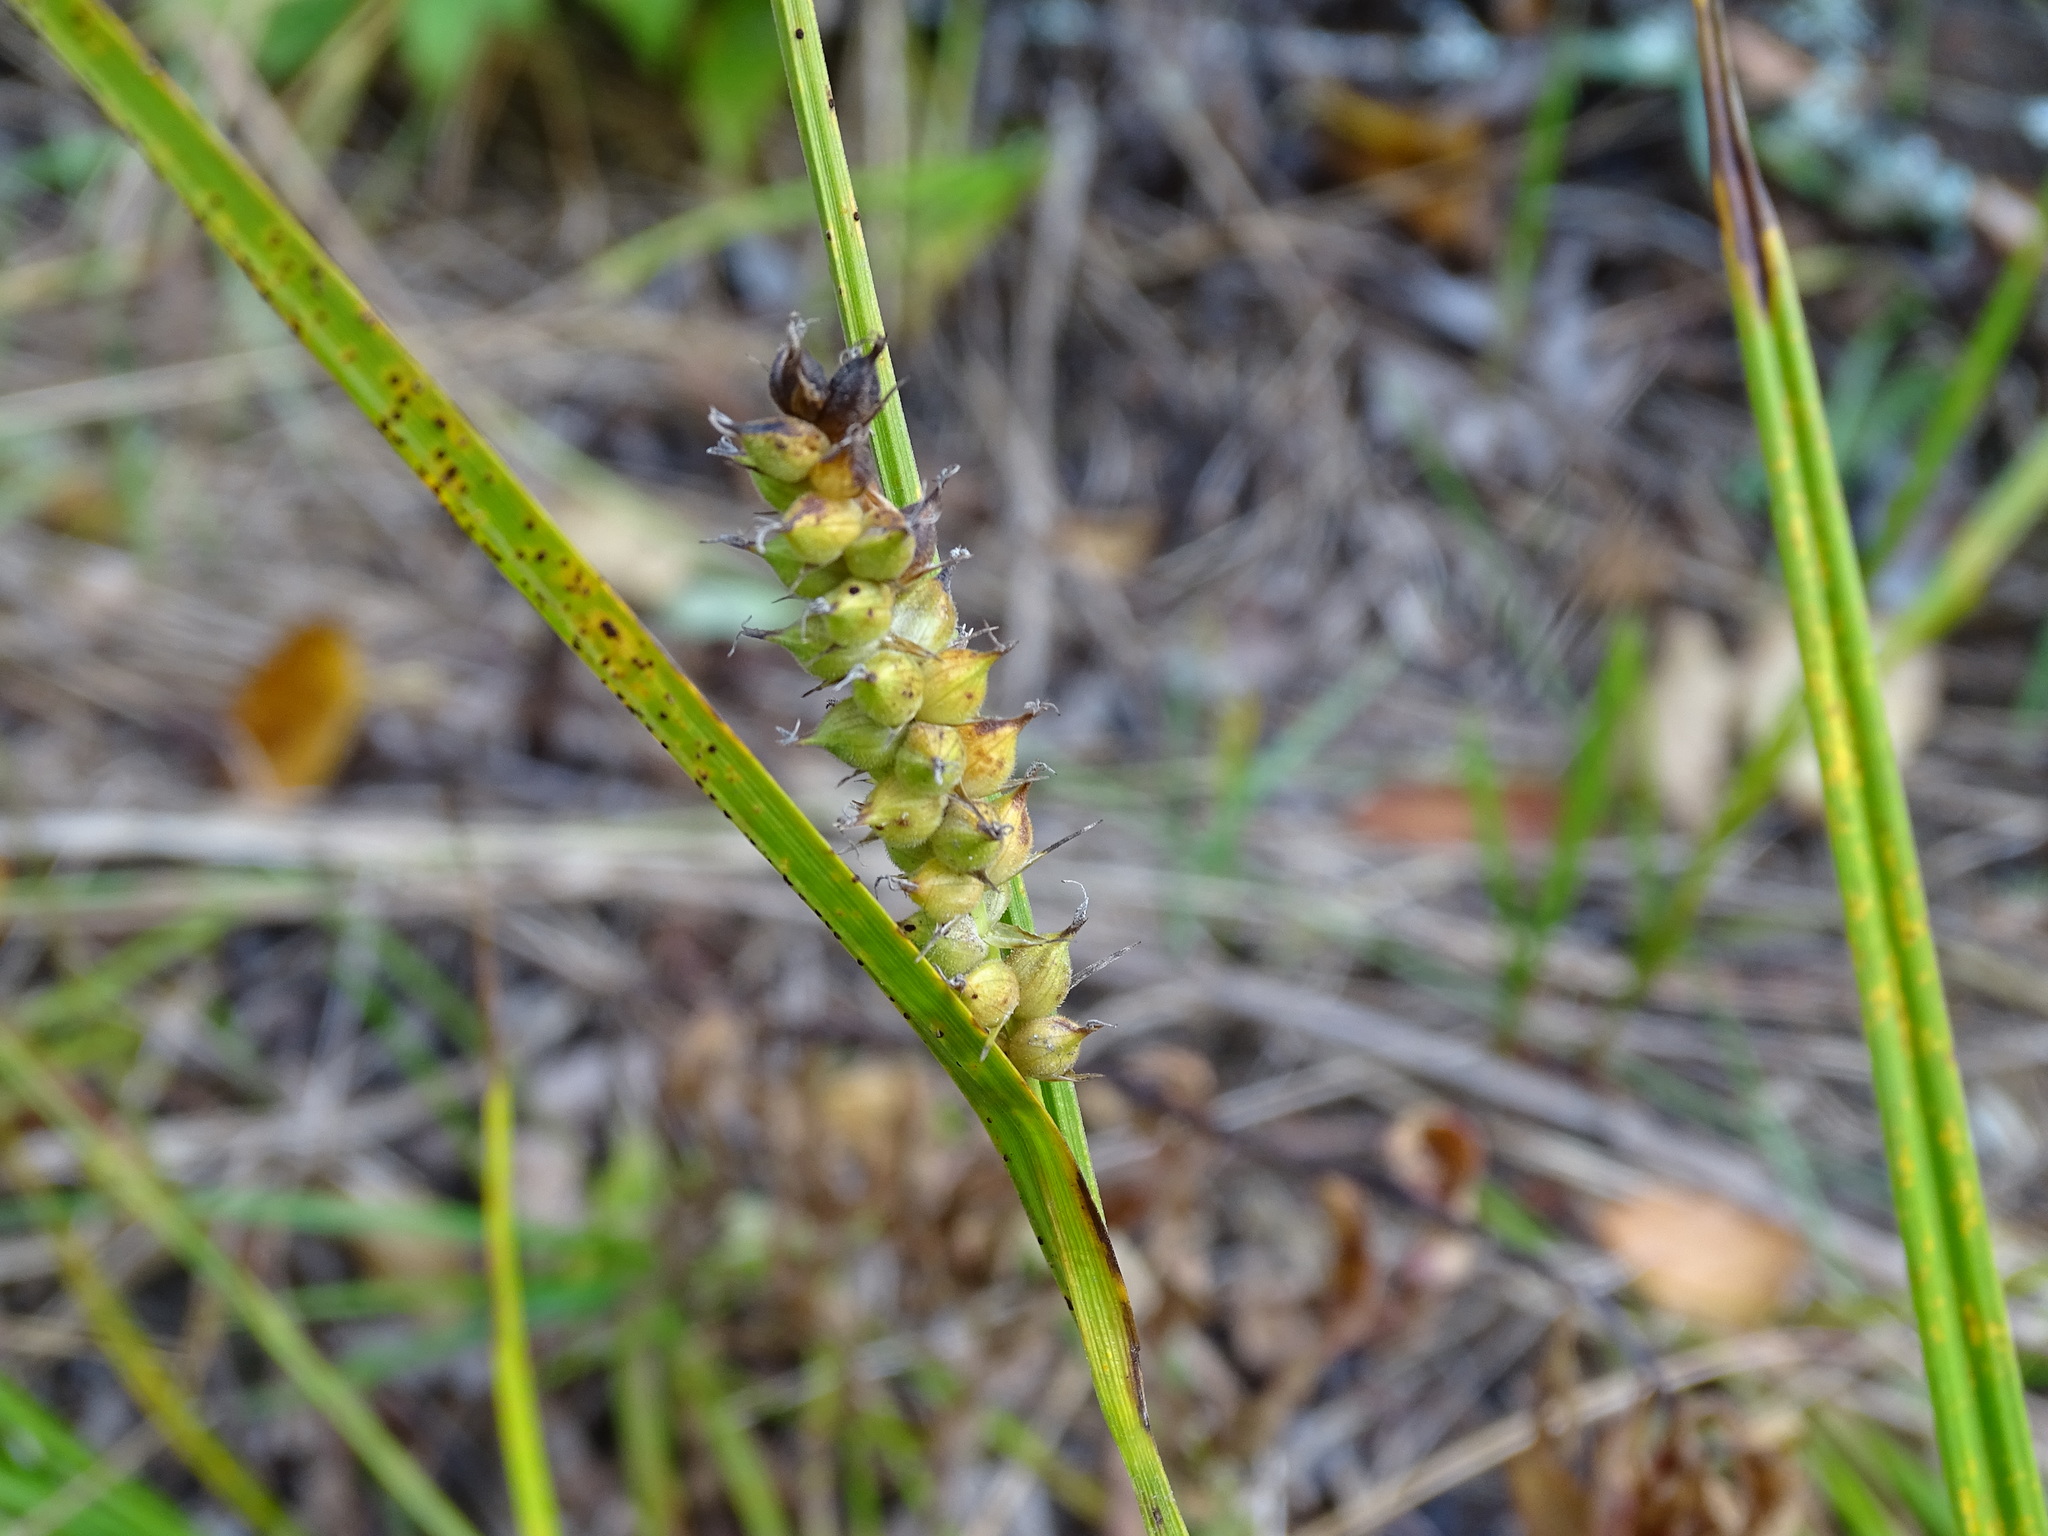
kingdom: Plantae
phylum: Tracheophyta
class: Liliopsida
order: Poales
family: Cyperaceae
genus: Carex
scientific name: Carex houghtoniana
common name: Houghton's sedge
